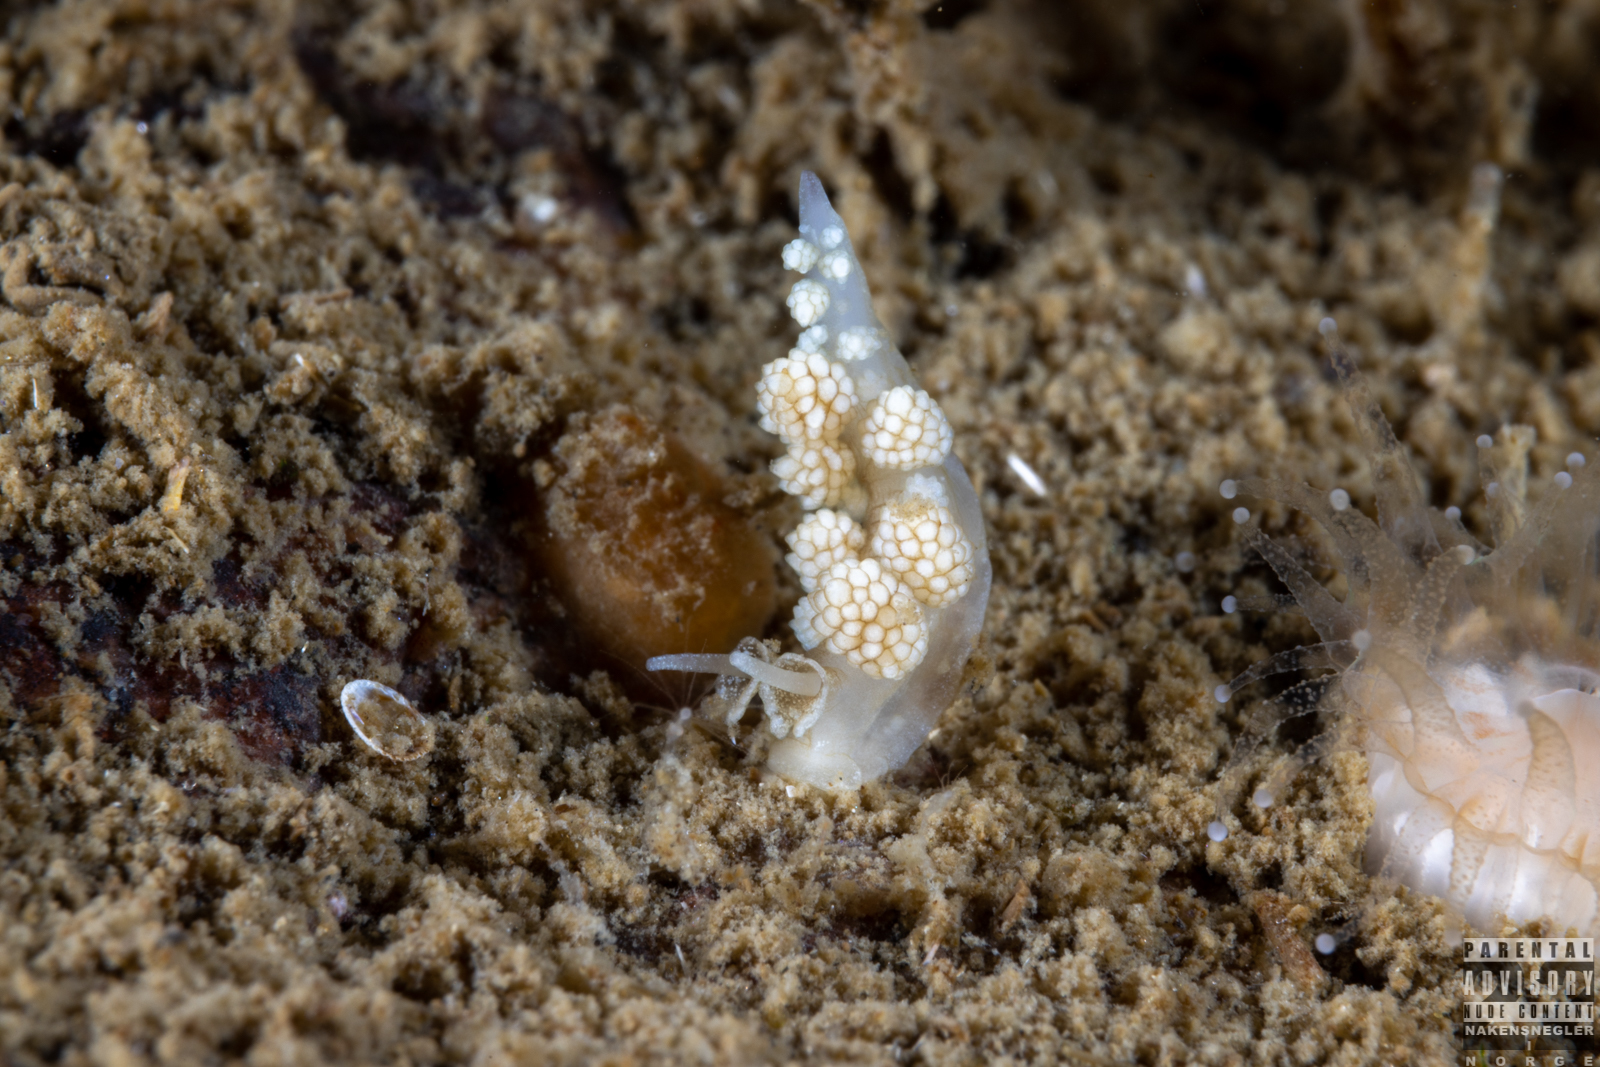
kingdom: Animalia
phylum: Mollusca
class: Gastropoda
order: Nudibranchia
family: Dotidae
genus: Doto
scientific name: Doto fragilis
